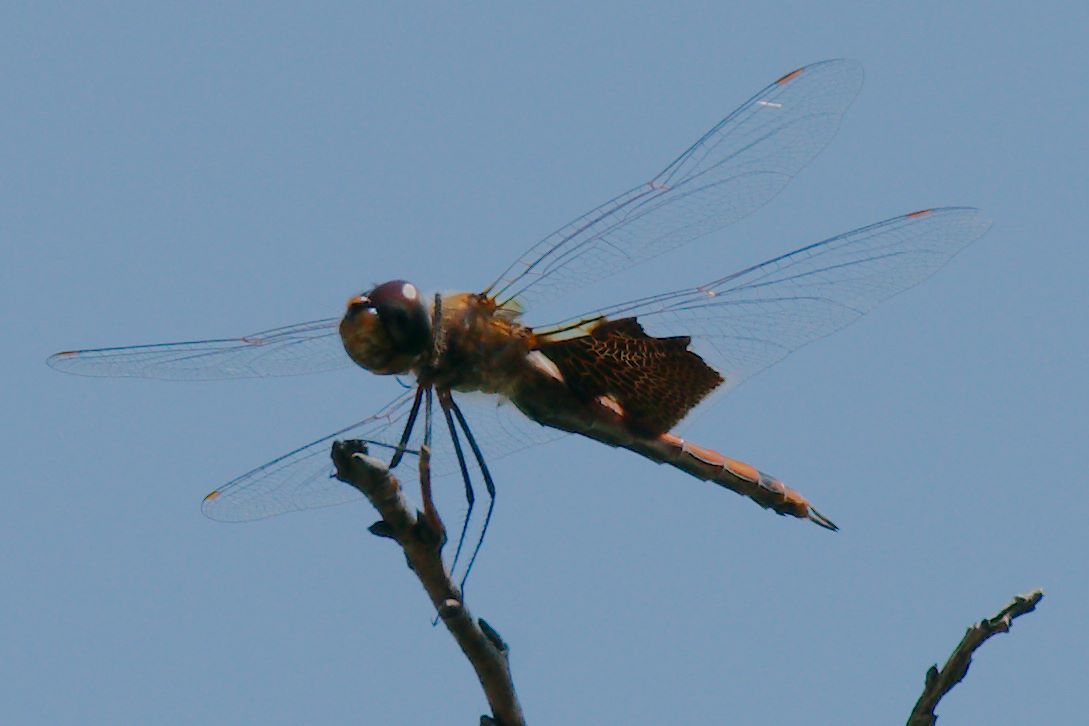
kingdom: Animalia
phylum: Arthropoda
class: Insecta
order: Odonata
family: Libellulidae
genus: Tramea
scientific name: Tramea carolina
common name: Carolina saddlebags
